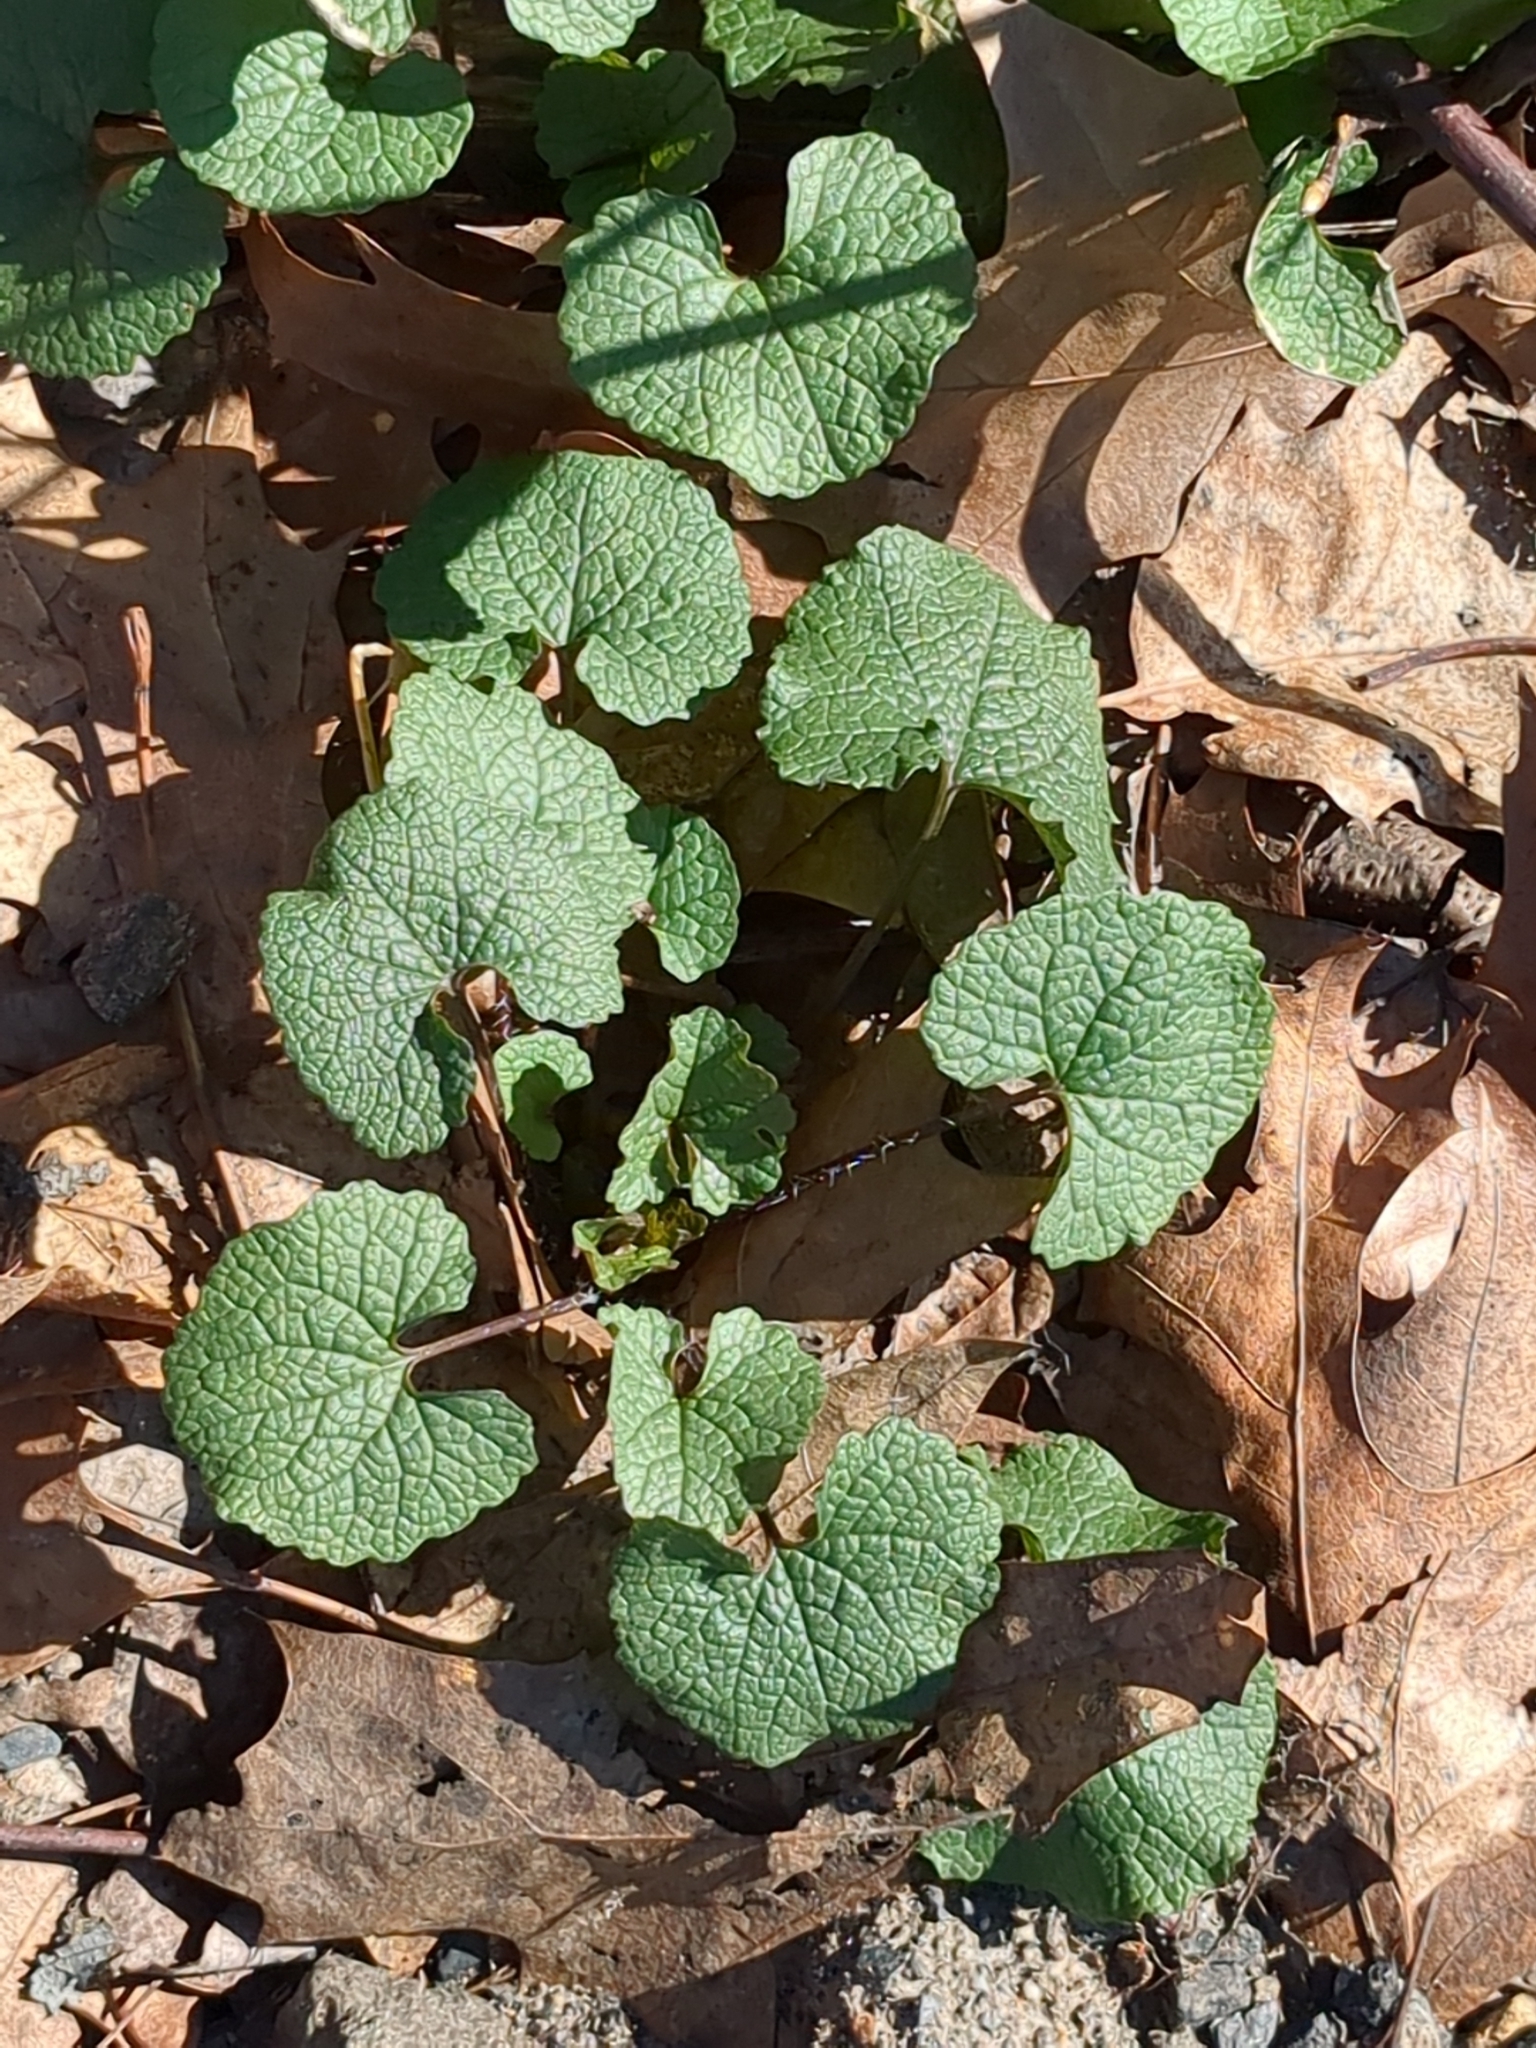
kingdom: Plantae
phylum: Tracheophyta
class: Magnoliopsida
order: Brassicales
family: Brassicaceae
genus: Alliaria
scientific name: Alliaria petiolata
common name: Garlic mustard
